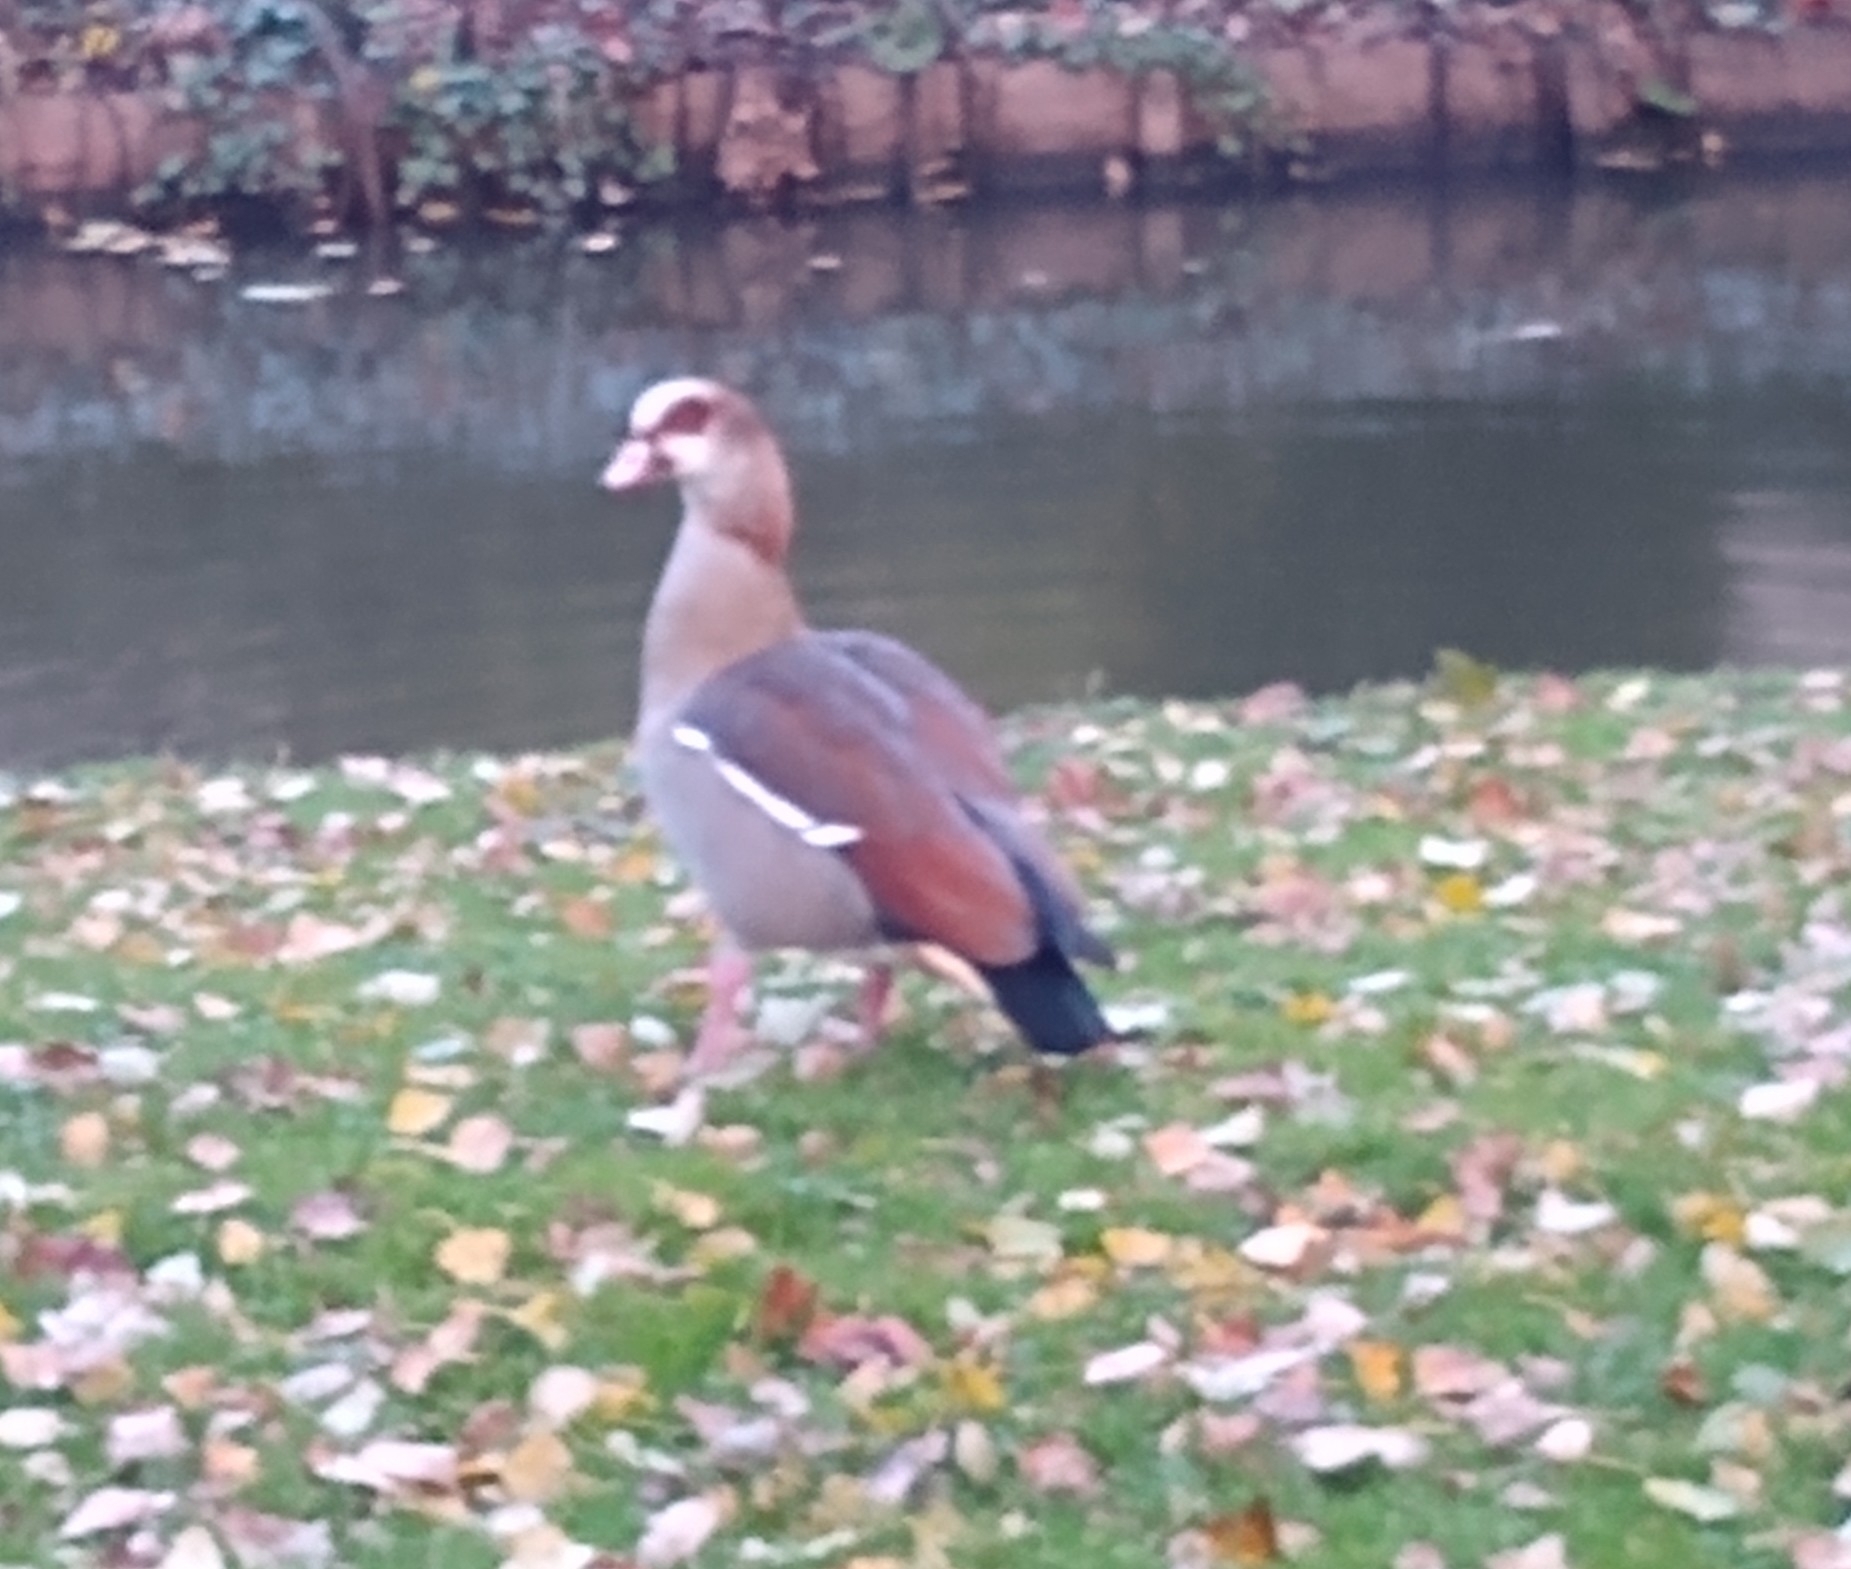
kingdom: Animalia
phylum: Chordata
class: Aves
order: Anseriformes
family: Anatidae
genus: Alopochen
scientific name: Alopochen aegyptiaca
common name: Egyptian goose
